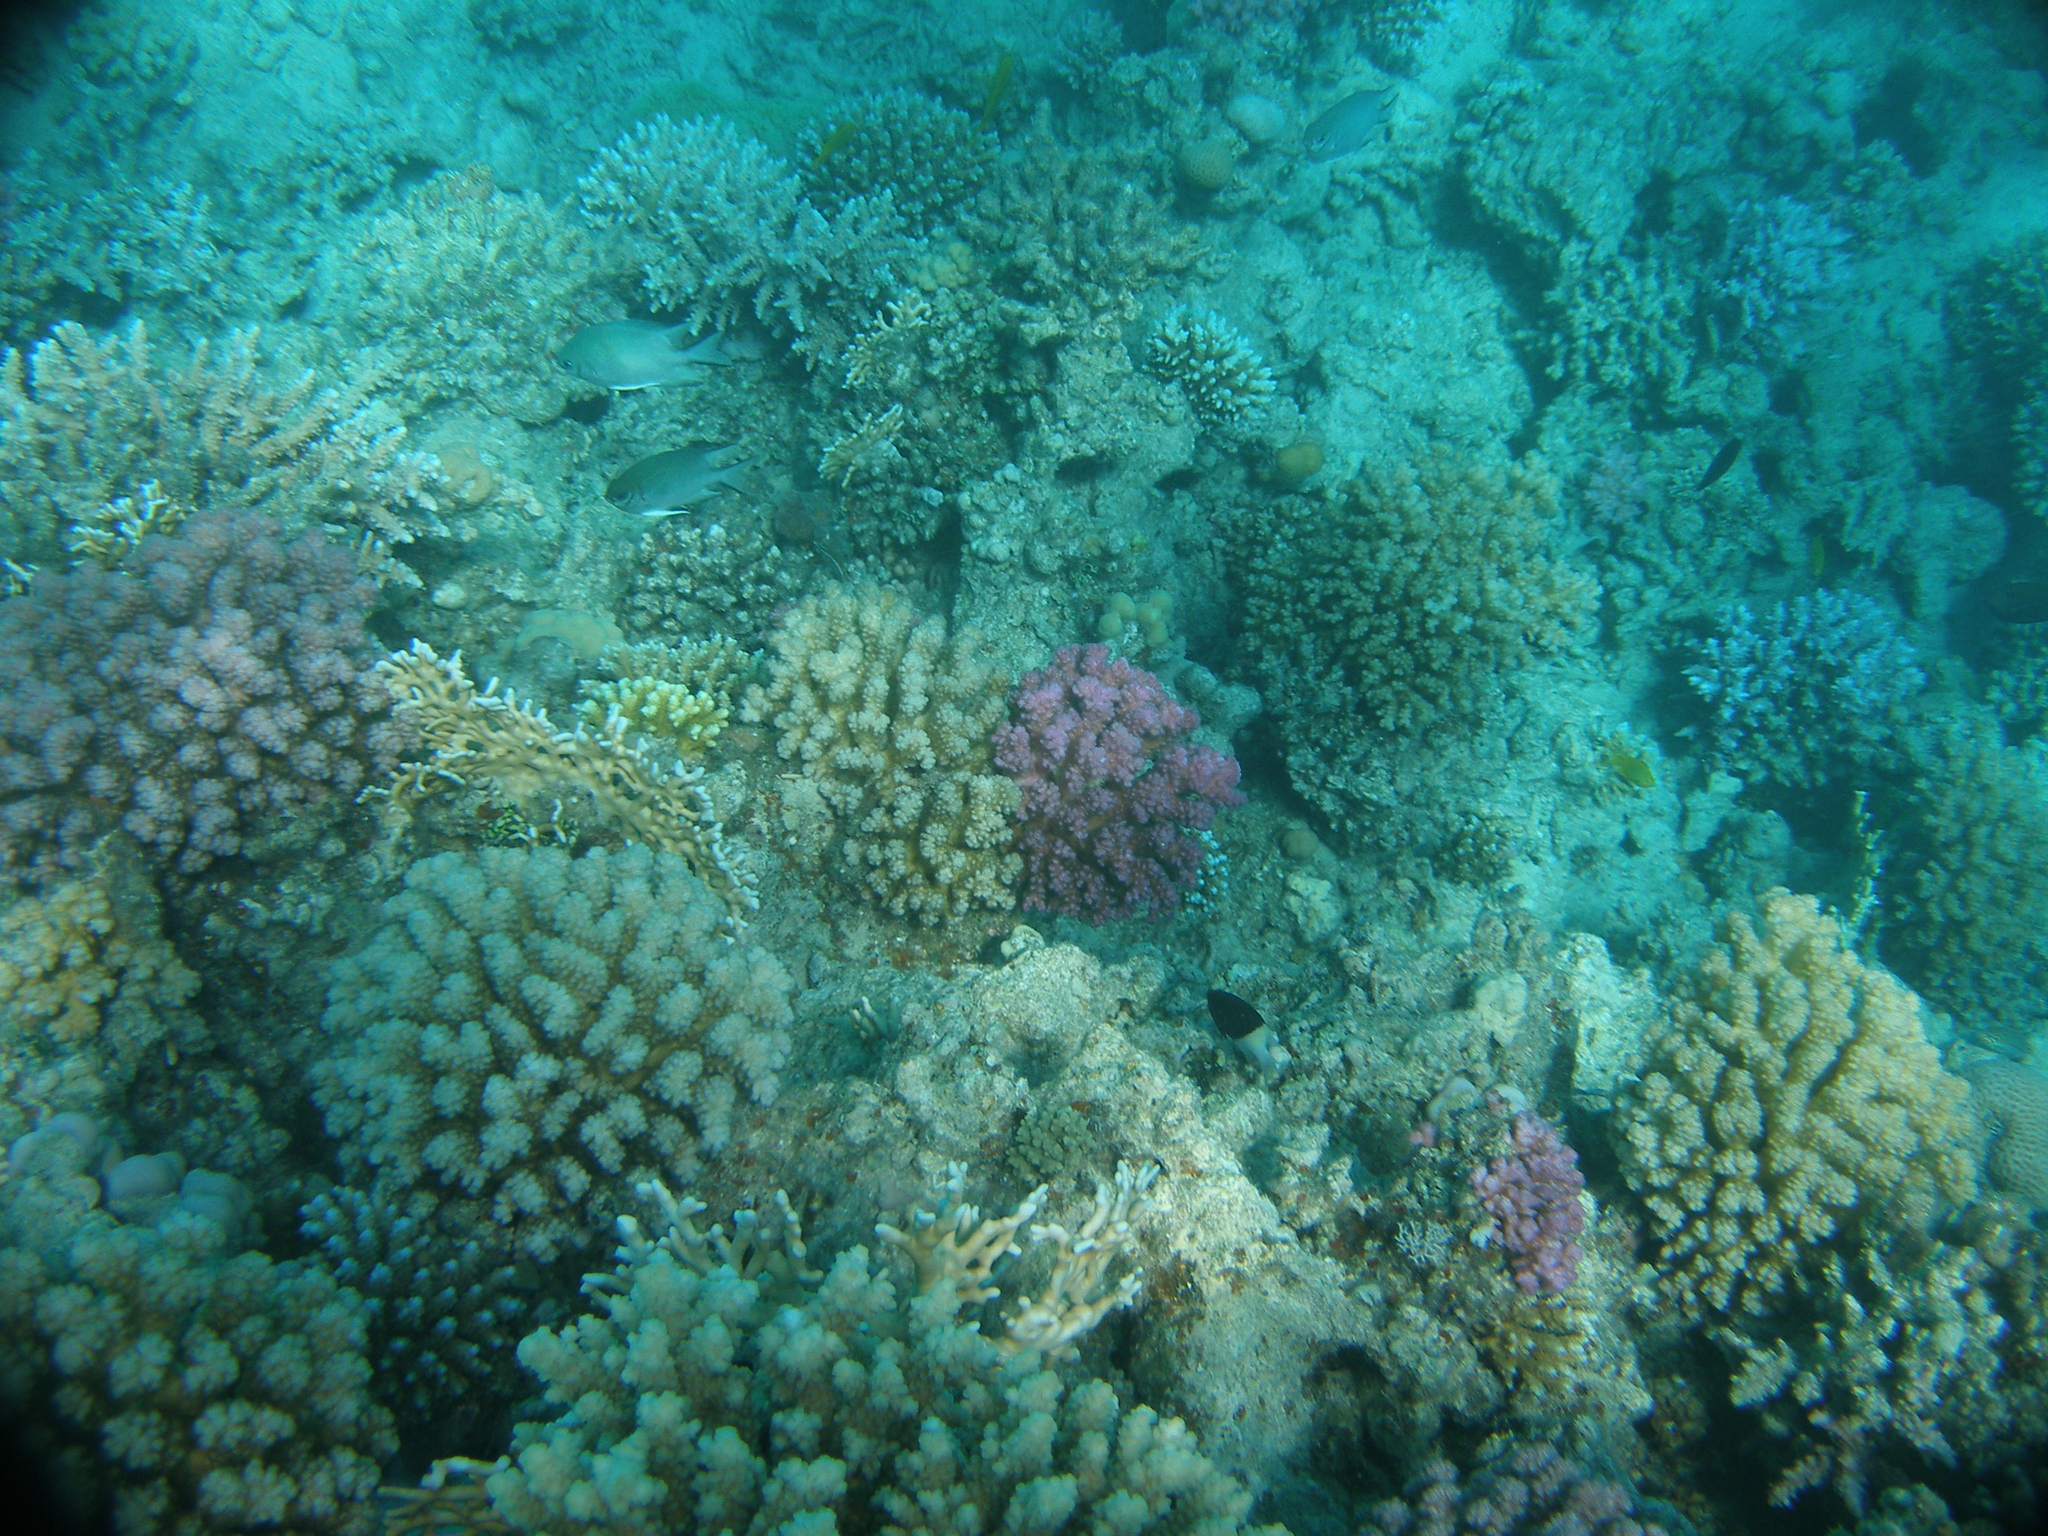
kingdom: Animalia
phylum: Cnidaria
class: Anthozoa
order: Scleractinia
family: Pocilloporidae
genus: Pocillopora
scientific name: Pocillopora verrucosa
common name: Cauliflower coral
